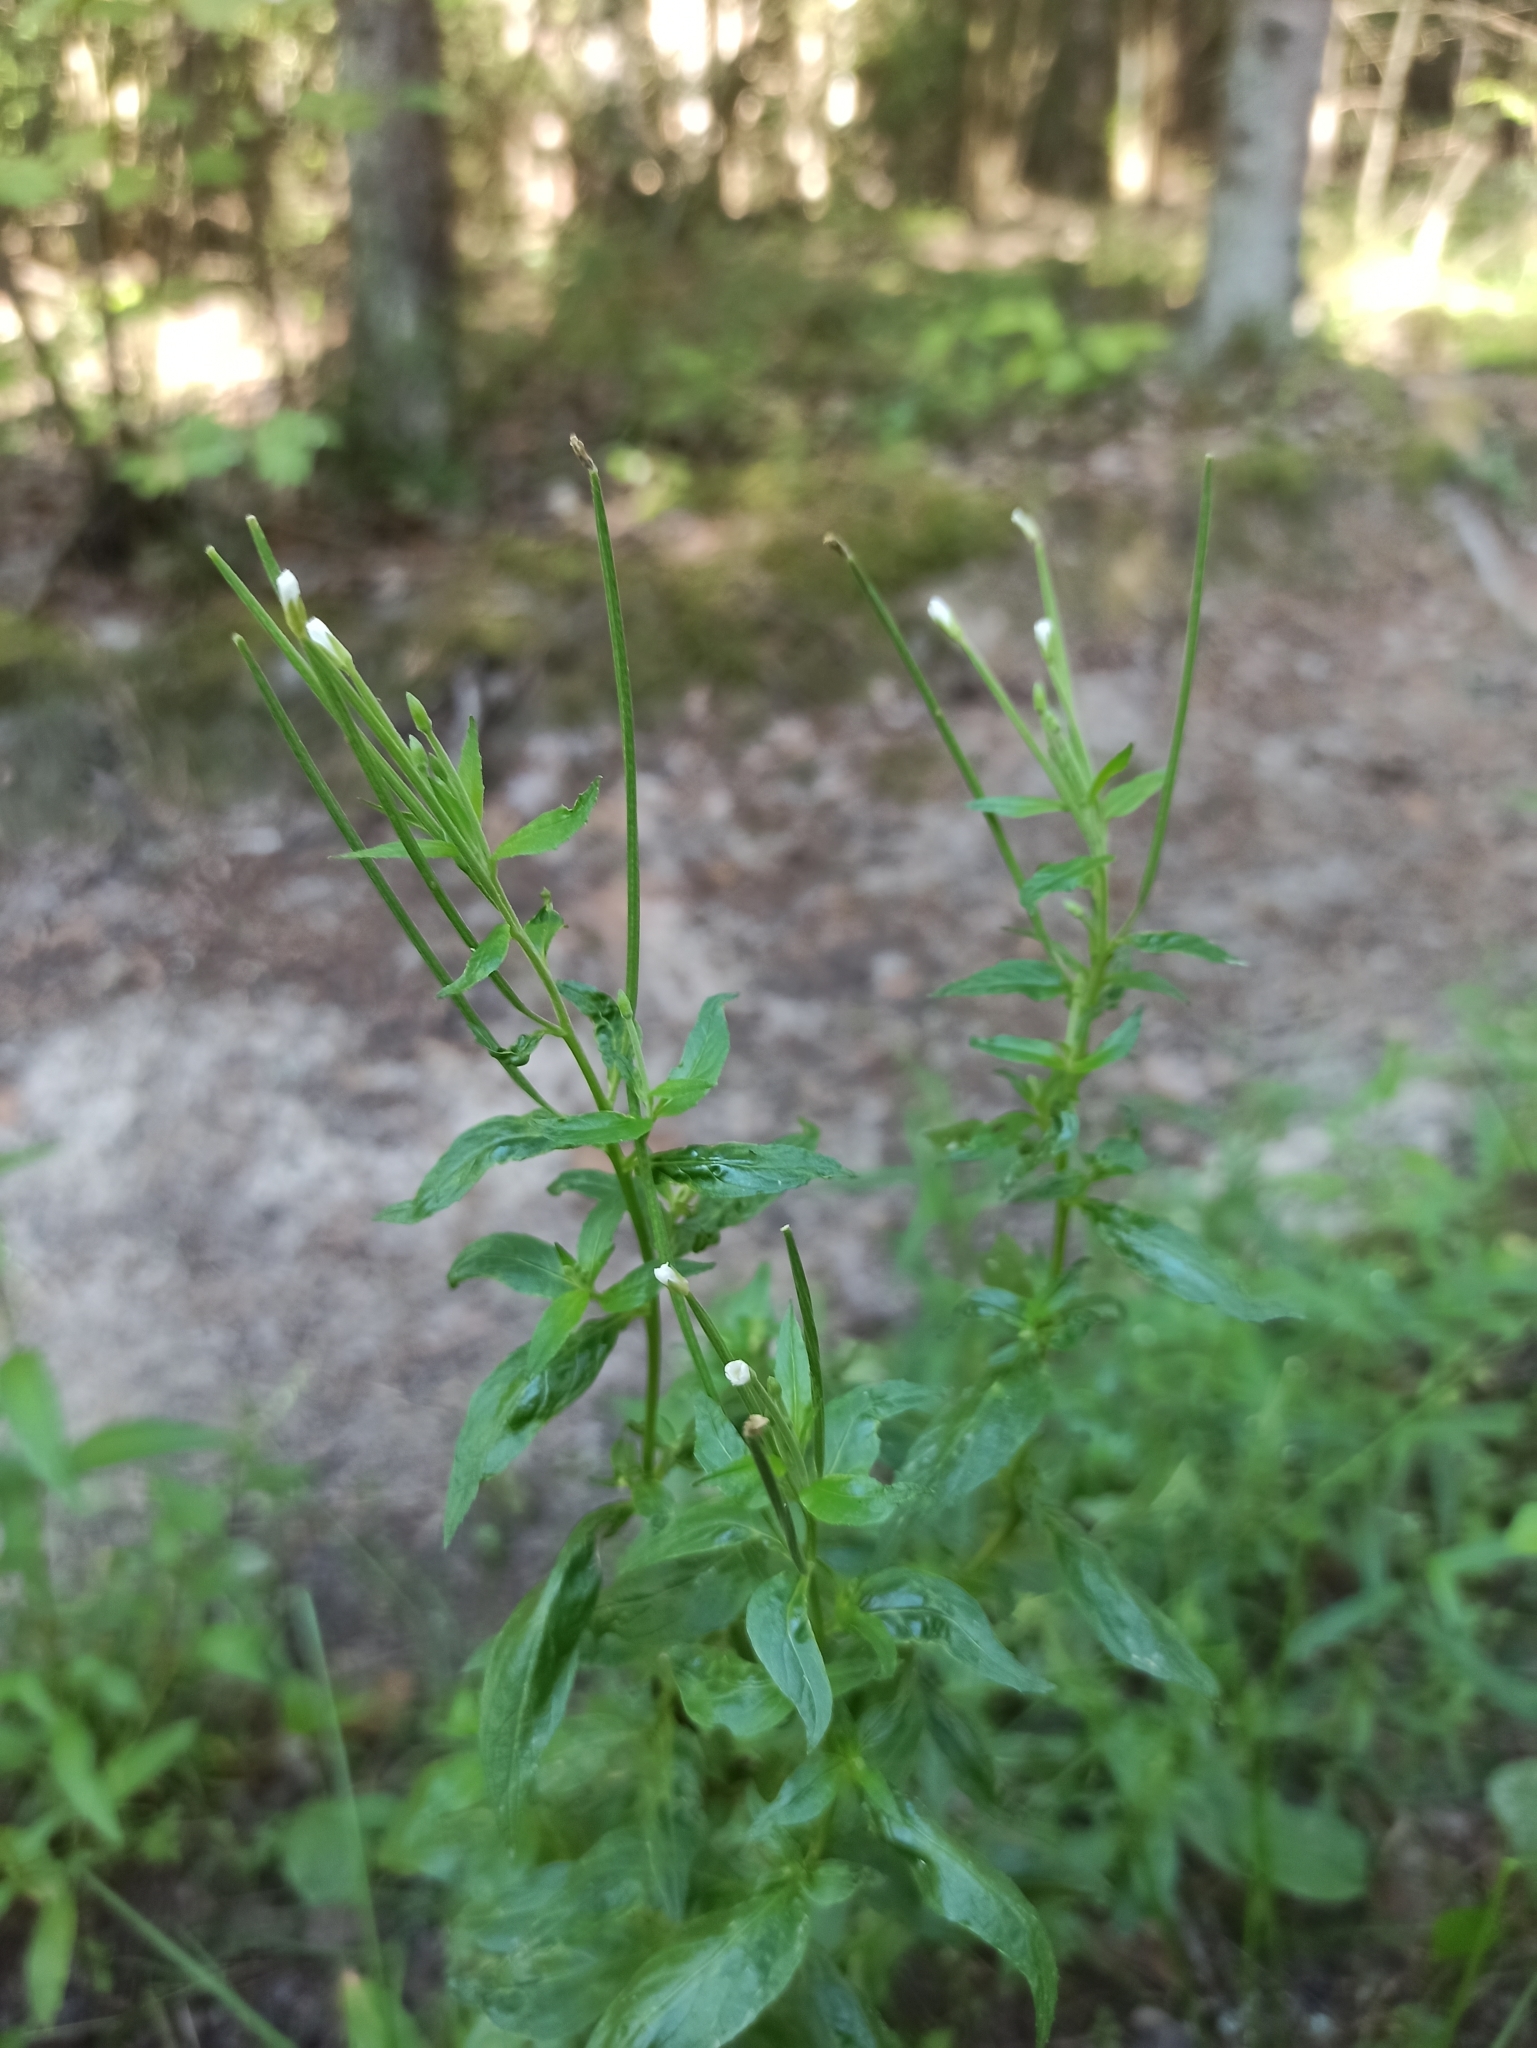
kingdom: Plantae
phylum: Tracheophyta
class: Magnoliopsida
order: Myrtales
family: Onagraceae
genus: Epilobium
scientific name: Epilobium pseudorubescens
